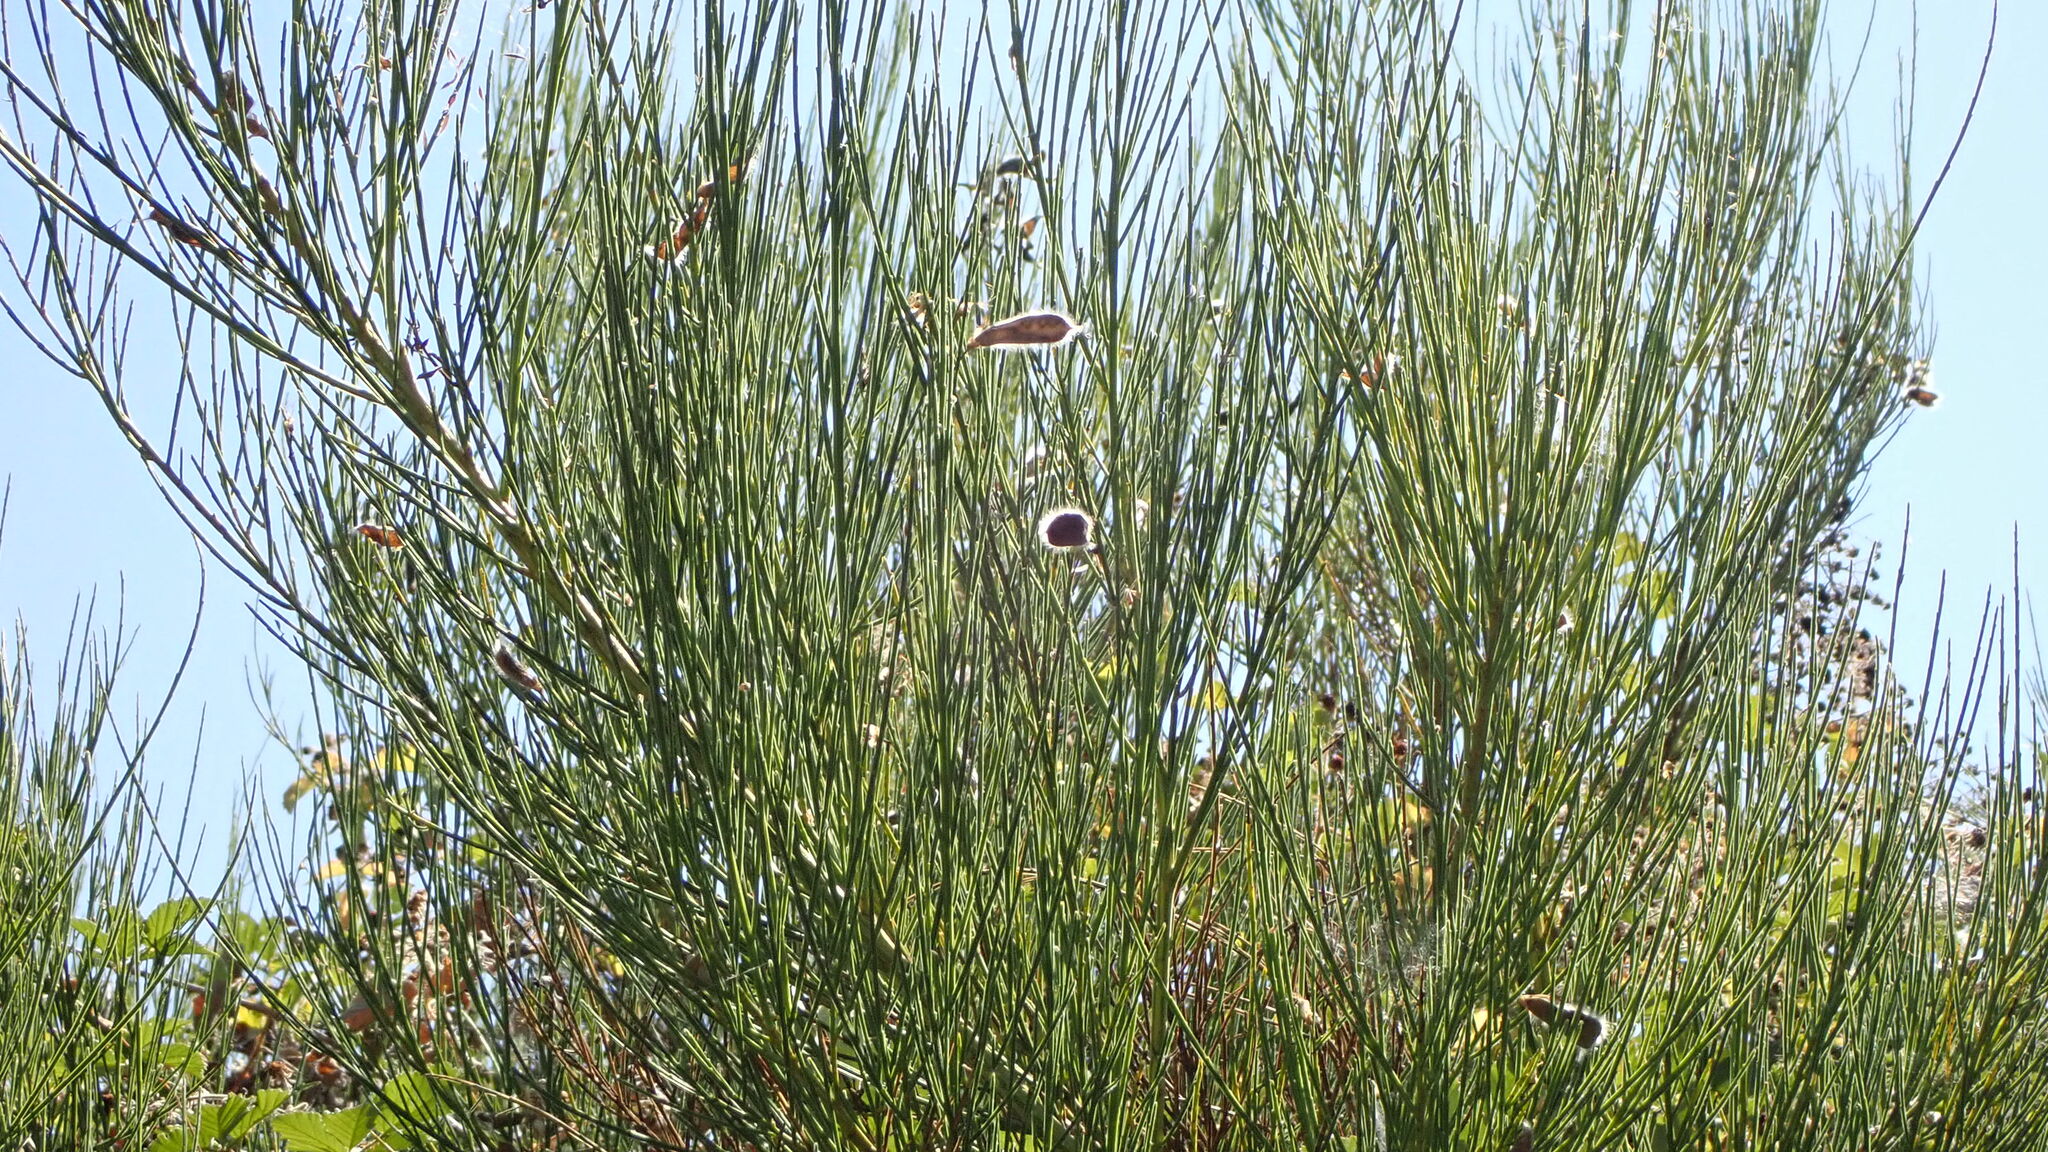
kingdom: Plantae
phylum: Tracheophyta
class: Magnoliopsida
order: Fabales
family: Fabaceae
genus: Cytisus
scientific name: Cytisus striatus
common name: Hairy-fruited broom
